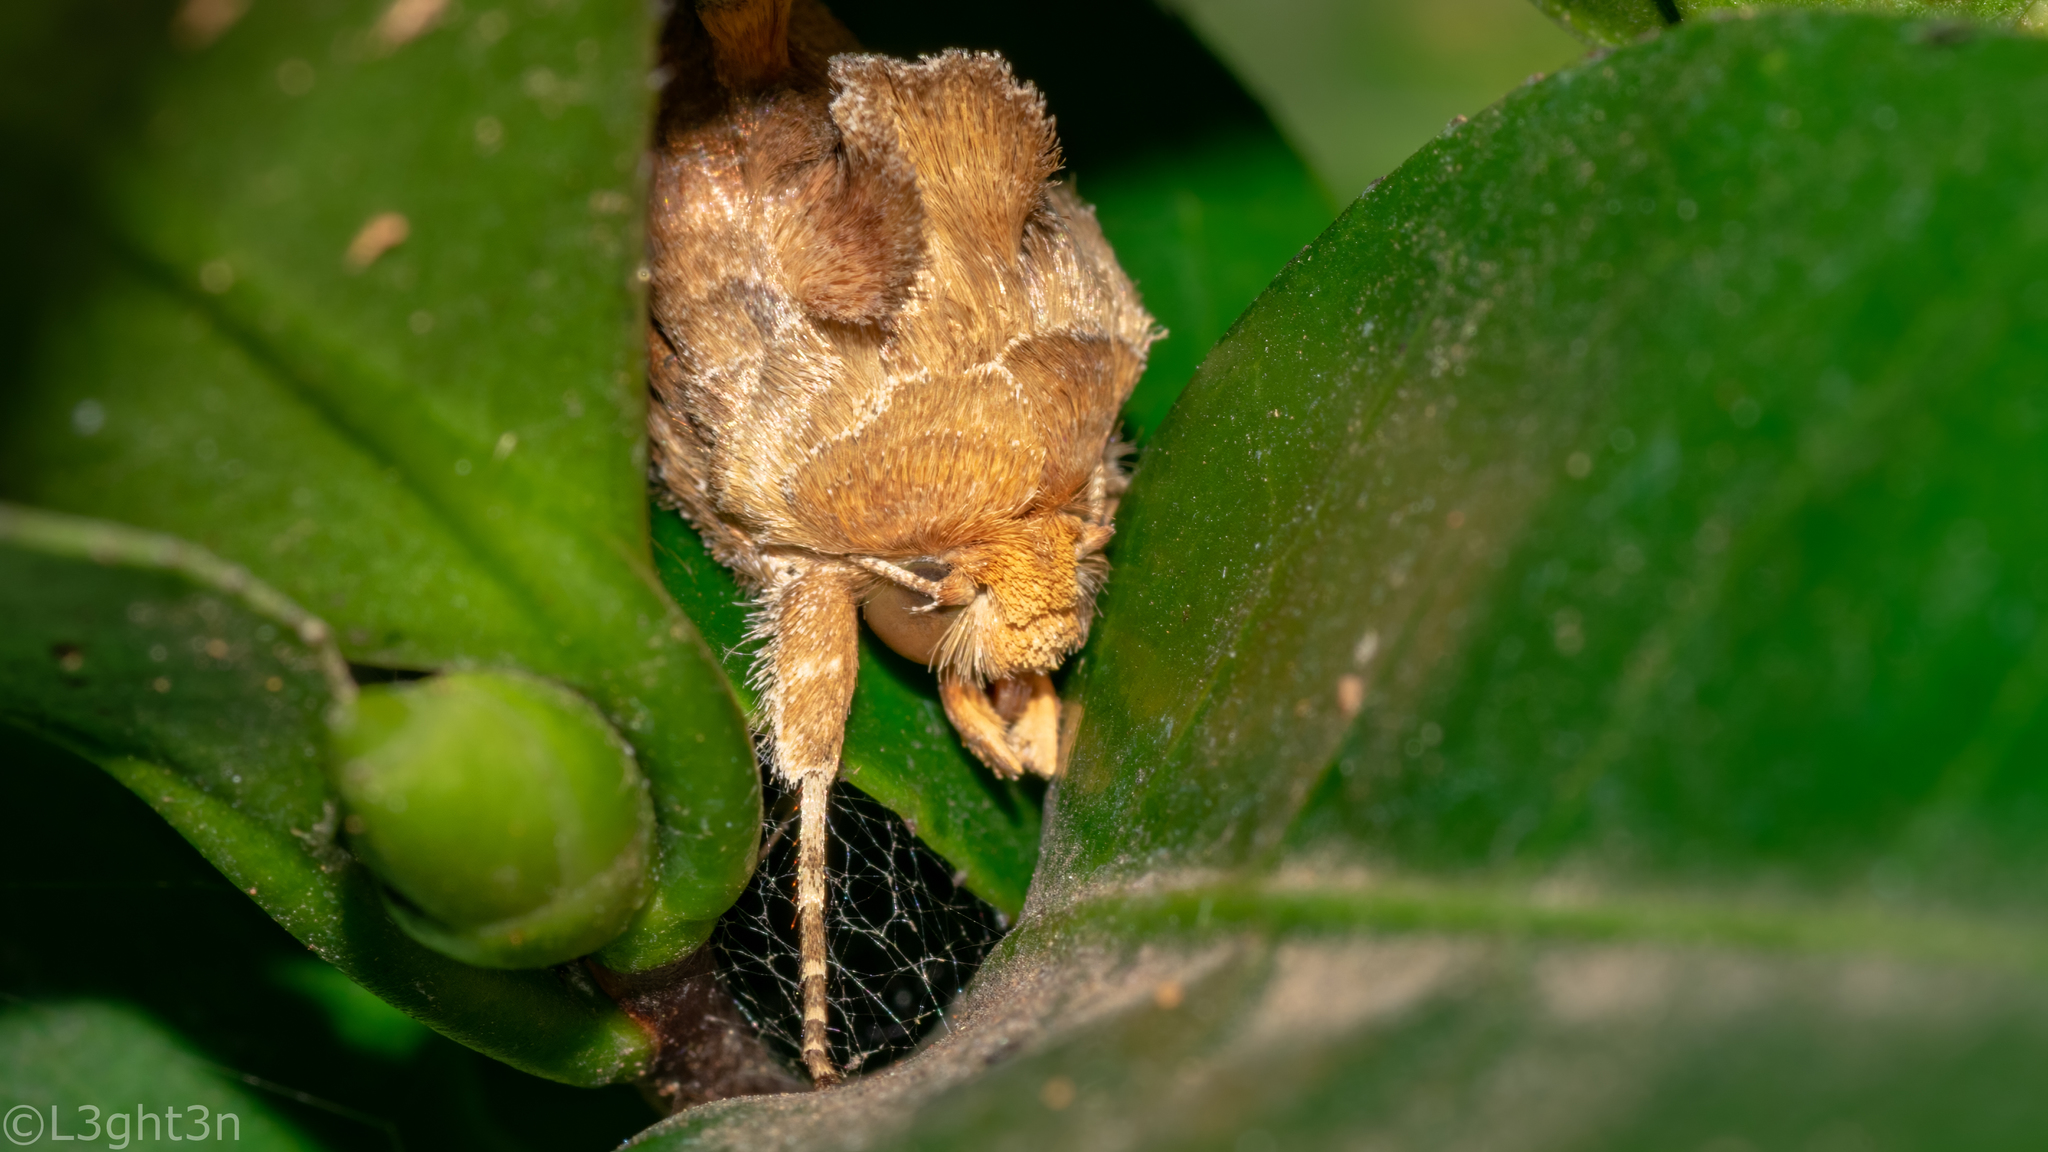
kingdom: Animalia
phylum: Arthropoda
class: Insecta
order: Lepidoptera
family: Noctuidae
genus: Thysanoplusia
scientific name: Thysanoplusia orichalcea
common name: Slender burnished brass, golden plusia
